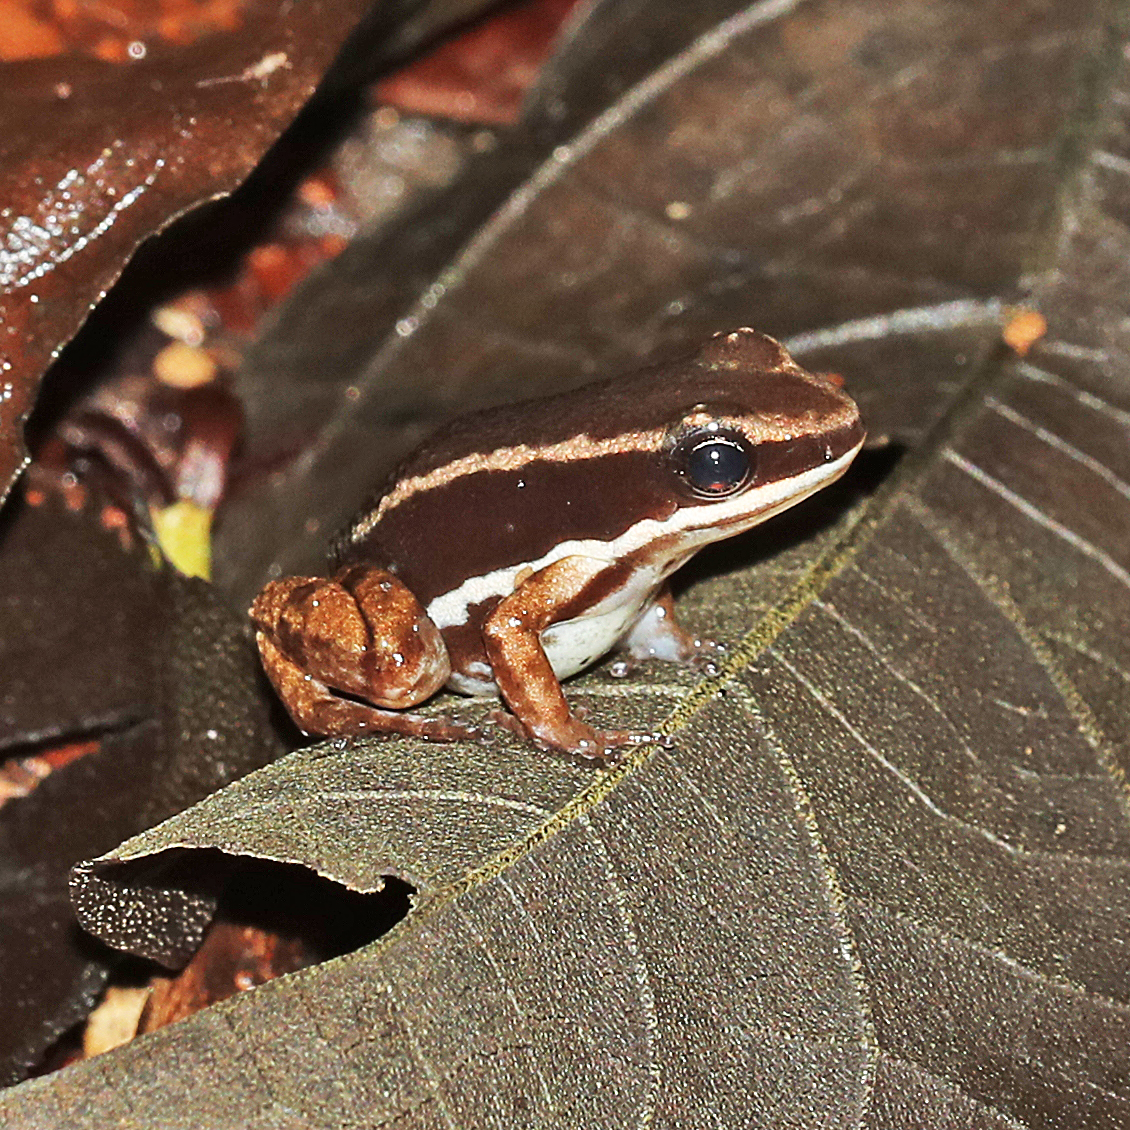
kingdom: Animalia
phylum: Chordata
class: Amphibia
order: Anura
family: Aromobatidae
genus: Allobates
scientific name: Allobates talamancae
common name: Talamanca rocket frog
